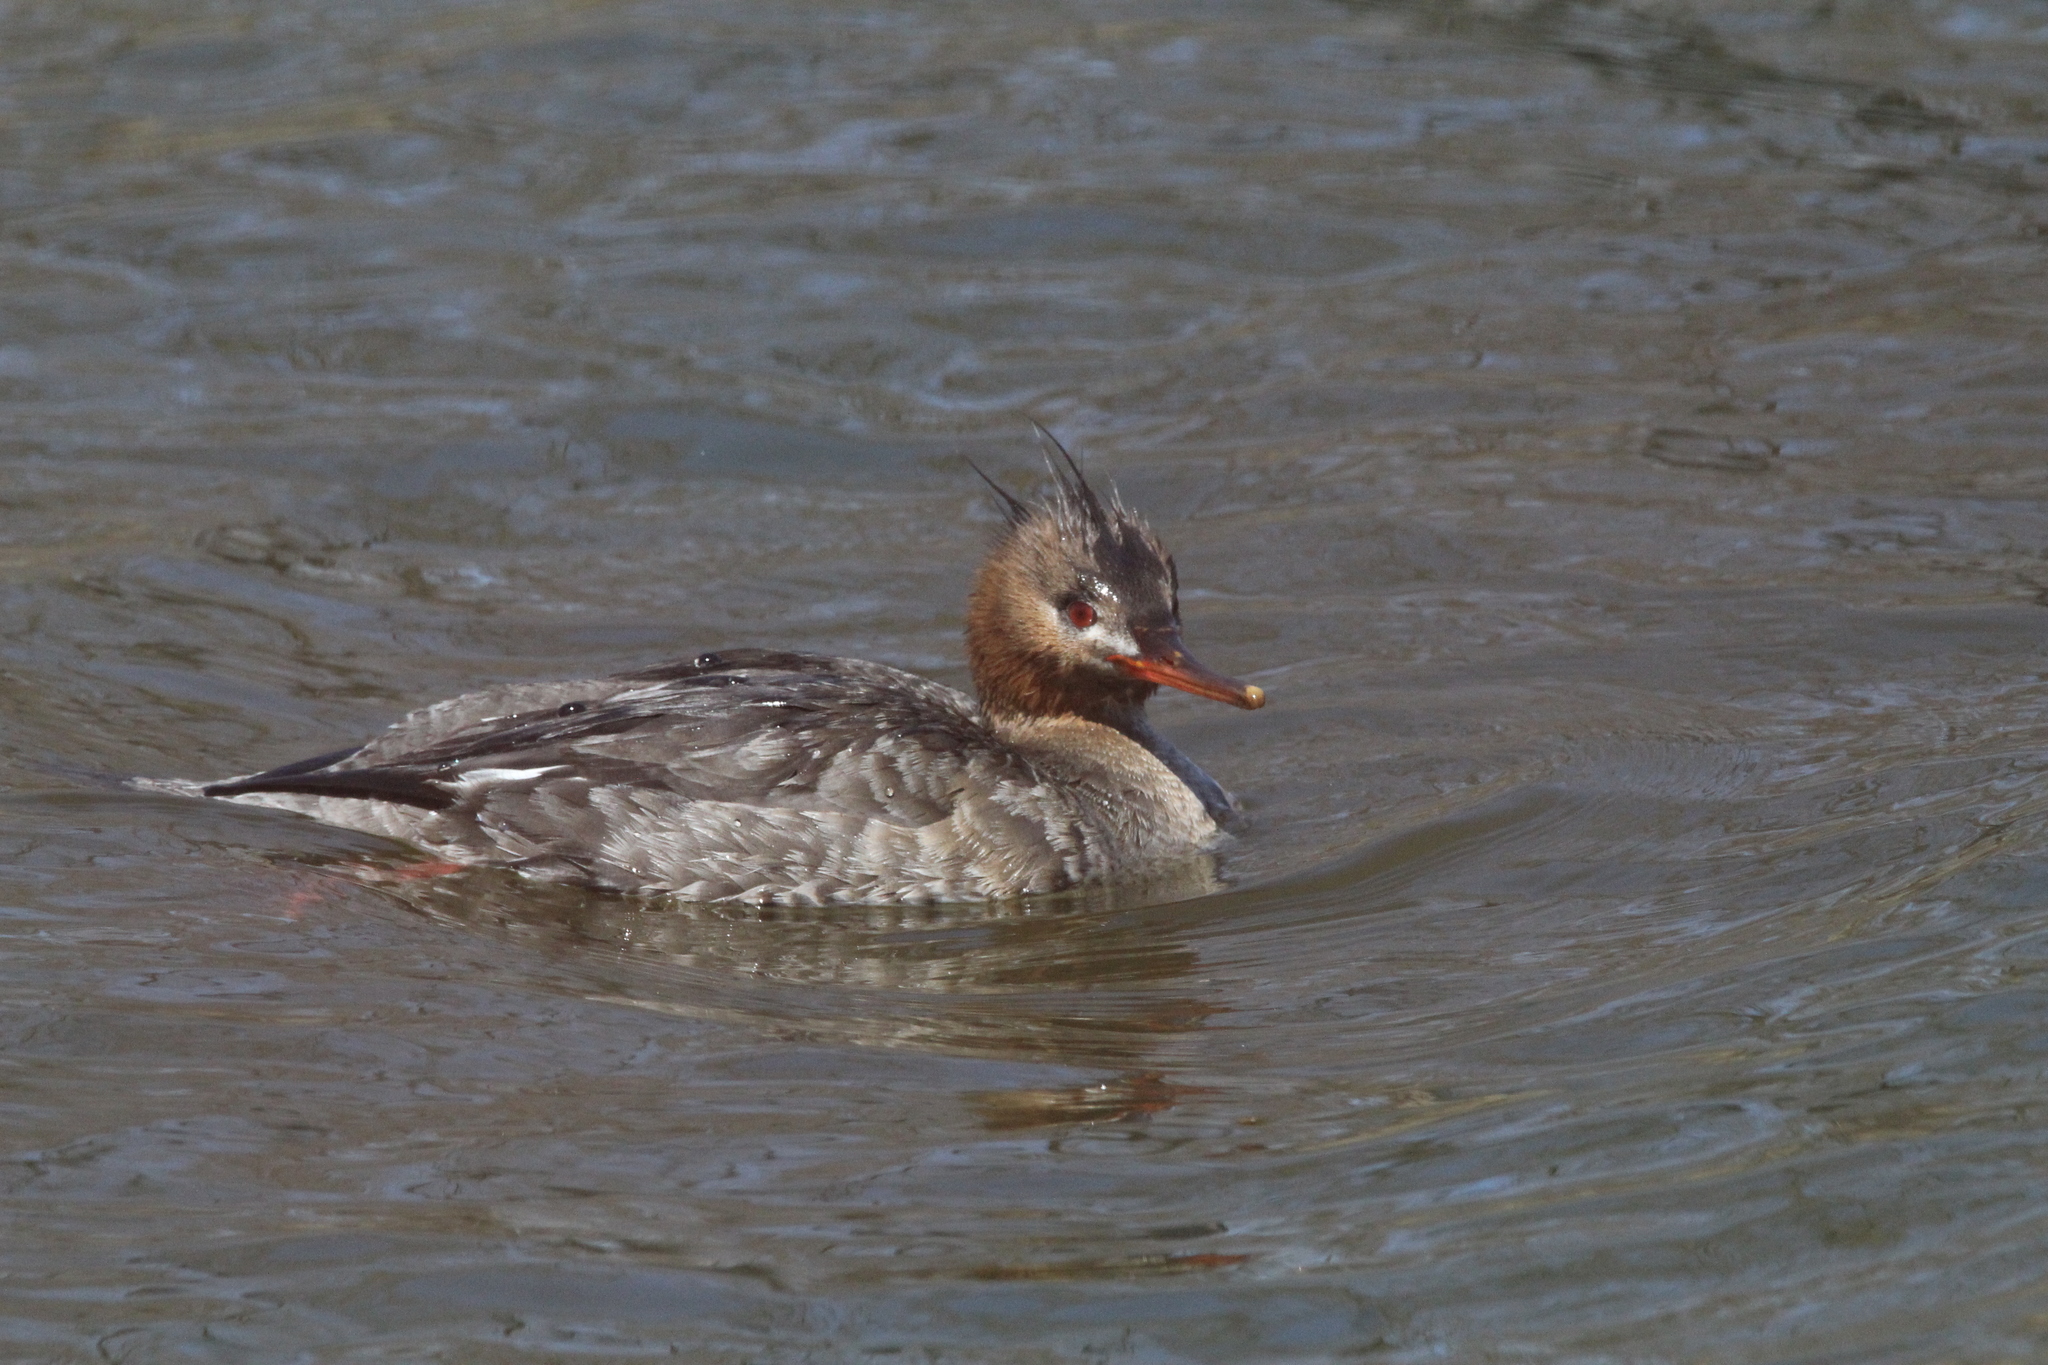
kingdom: Animalia
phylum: Chordata
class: Aves
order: Anseriformes
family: Anatidae
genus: Mergus
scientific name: Mergus serrator
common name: Red-breasted merganser
